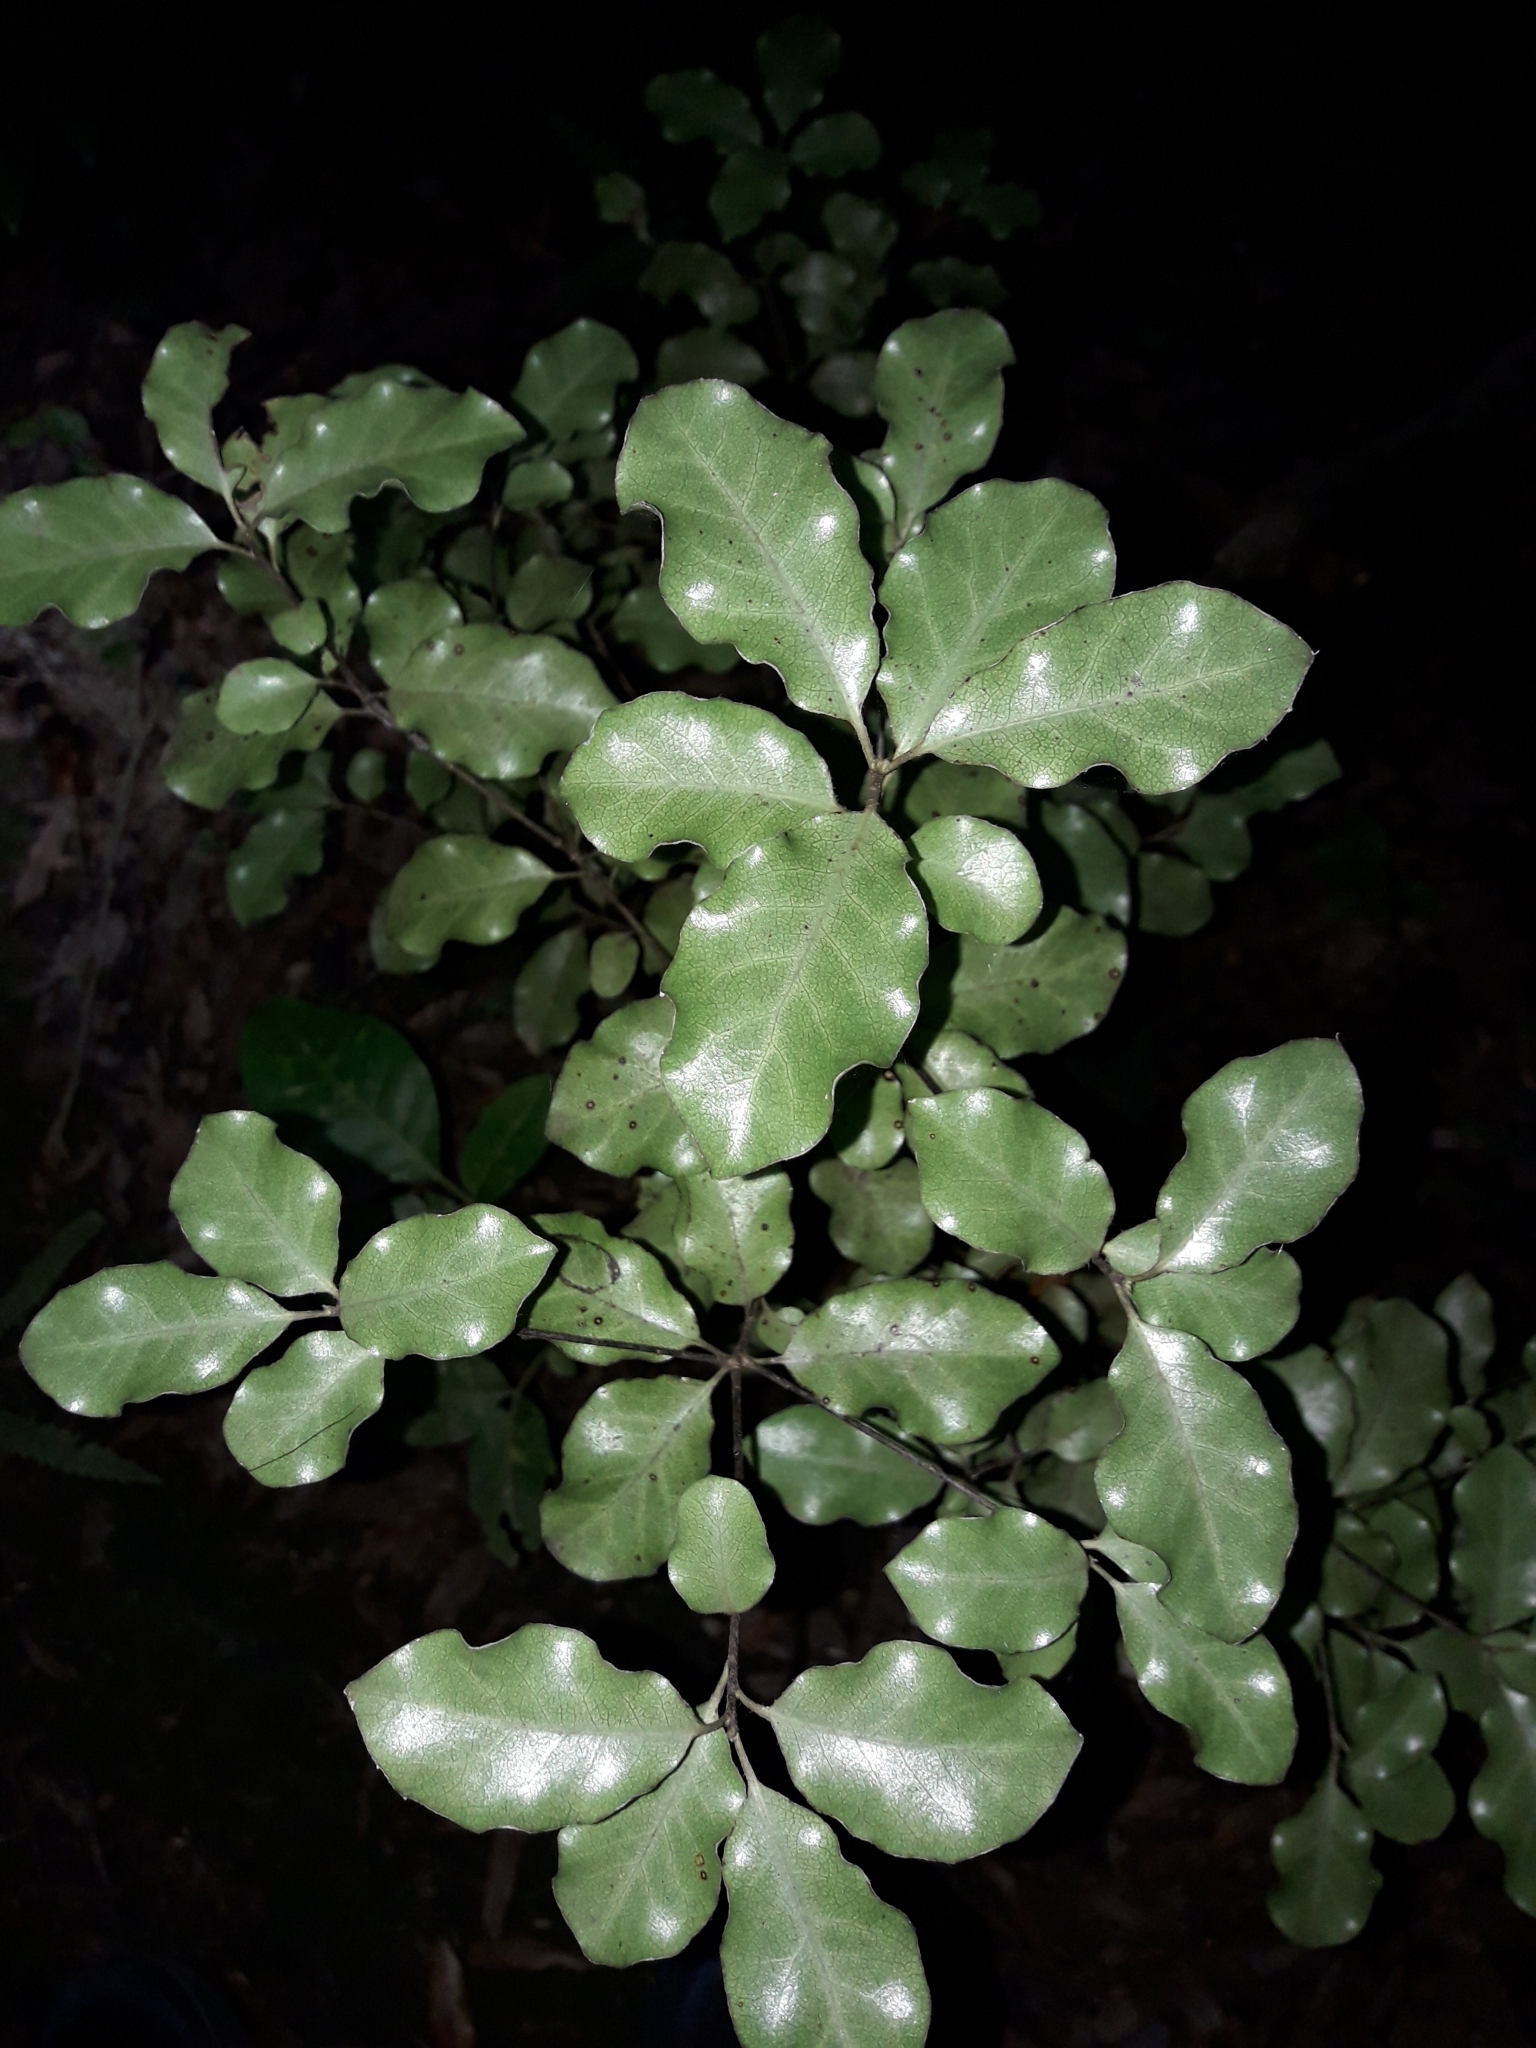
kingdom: Plantae
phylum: Tracheophyta
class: Magnoliopsida
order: Apiales
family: Pittosporaceae
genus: Pittosporum
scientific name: Pittosporum tenuifolium
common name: Kohuhu
